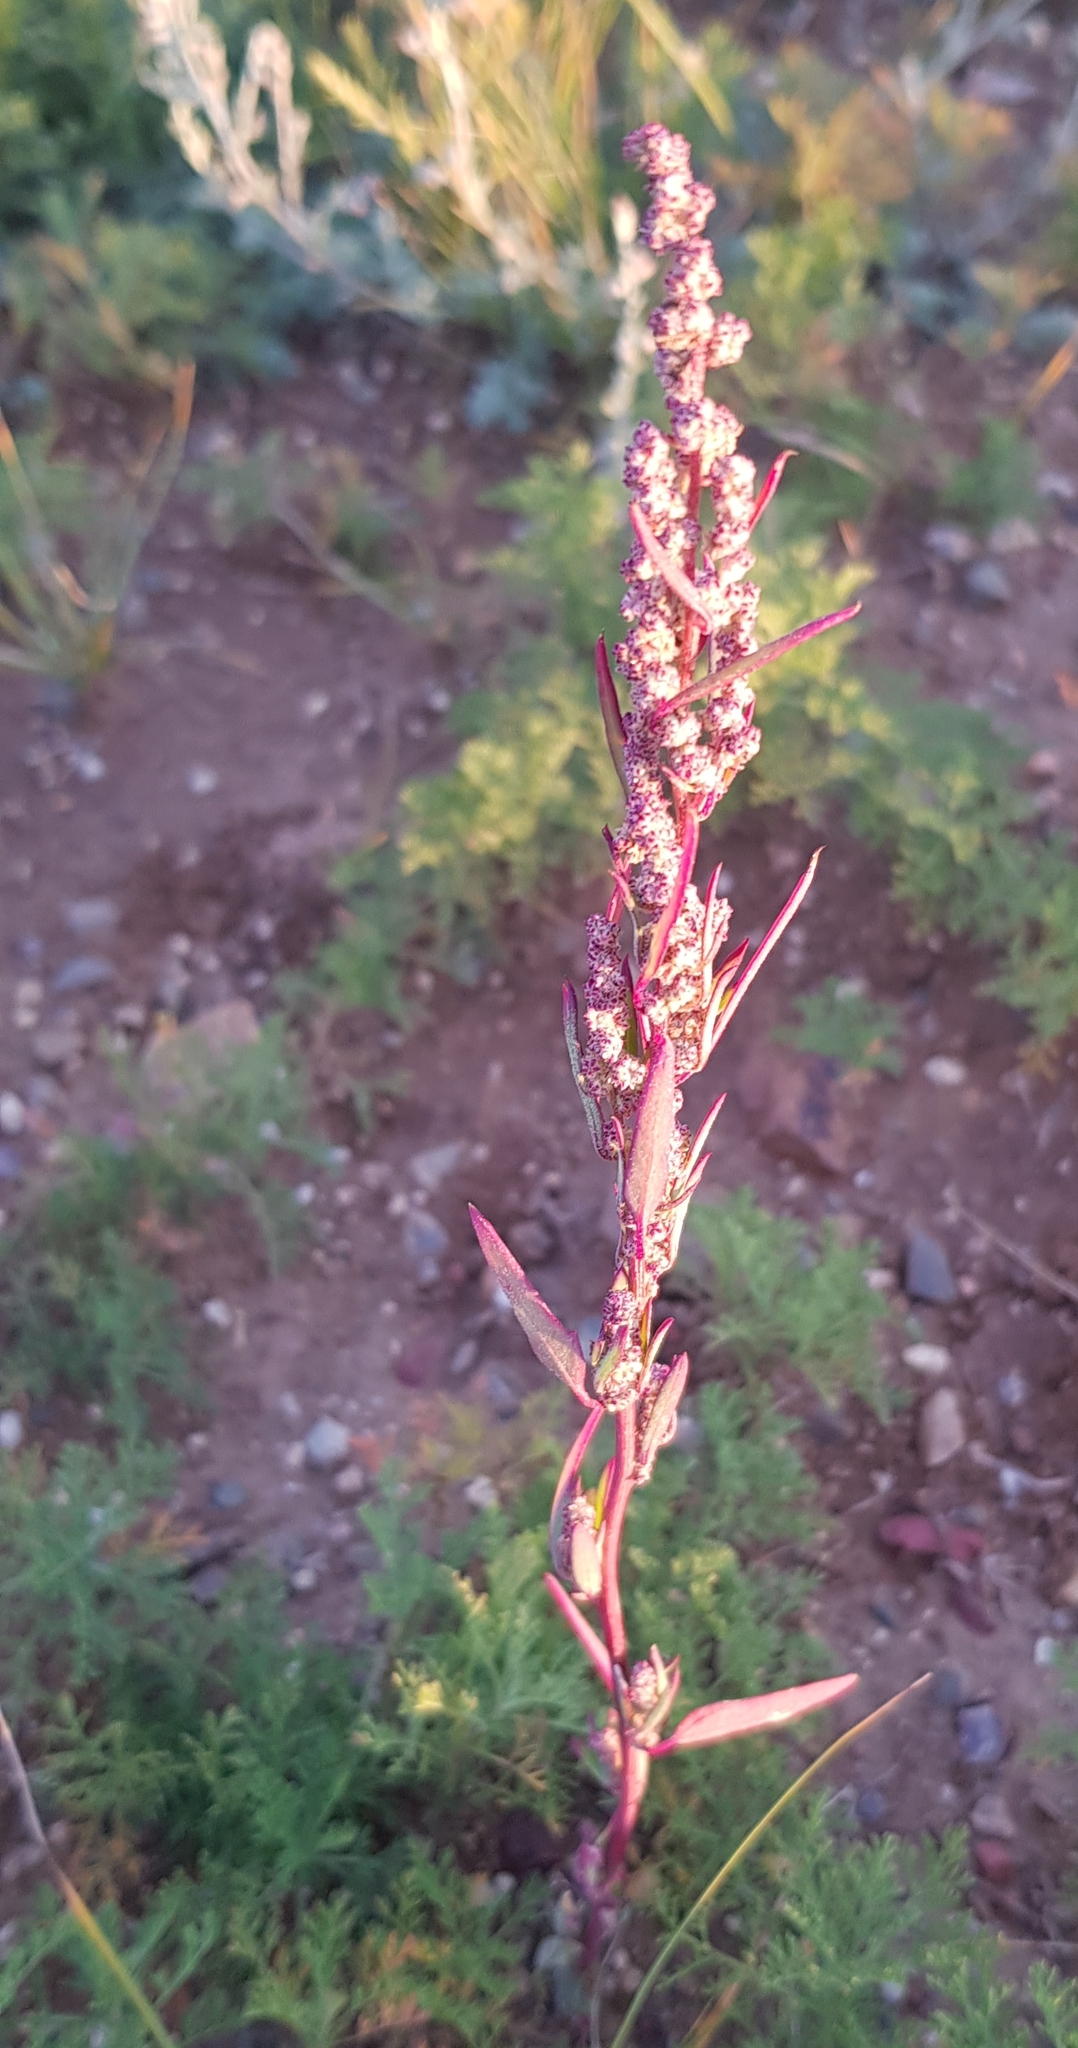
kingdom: Plantae
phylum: Tracheophyta
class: Magnoliopsida
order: Caryophyllales
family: Amaranthaceae
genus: Chenopodium
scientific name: Chenopodium album
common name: Fat-hen
